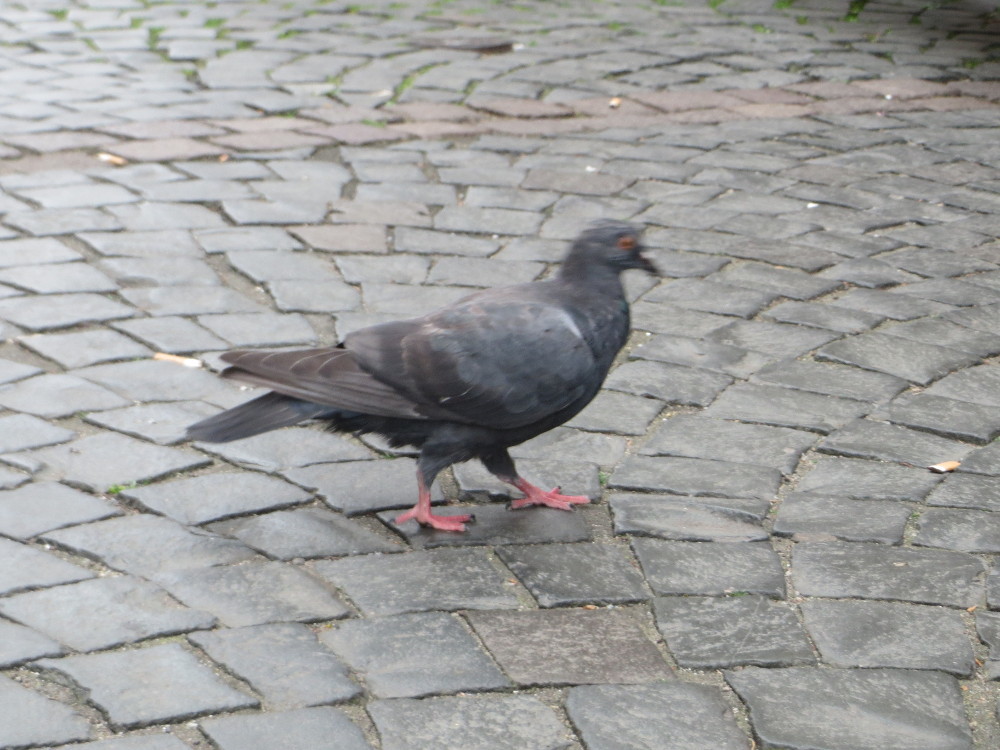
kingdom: Animalia
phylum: Chordata
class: Aves
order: Columbiformes
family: Columbidae
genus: Columba
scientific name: Columba livia
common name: Rock pigeon
